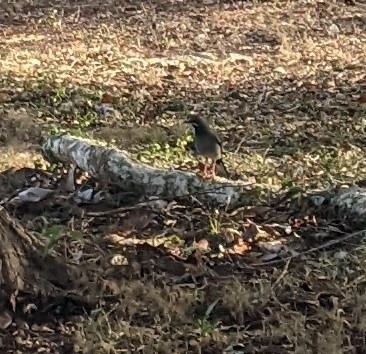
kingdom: Animalia
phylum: Chordata
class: Aves
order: Passeriformes
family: Turdidae
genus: Turdus
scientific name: Turdus plumbeus
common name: Red-legged thrush
